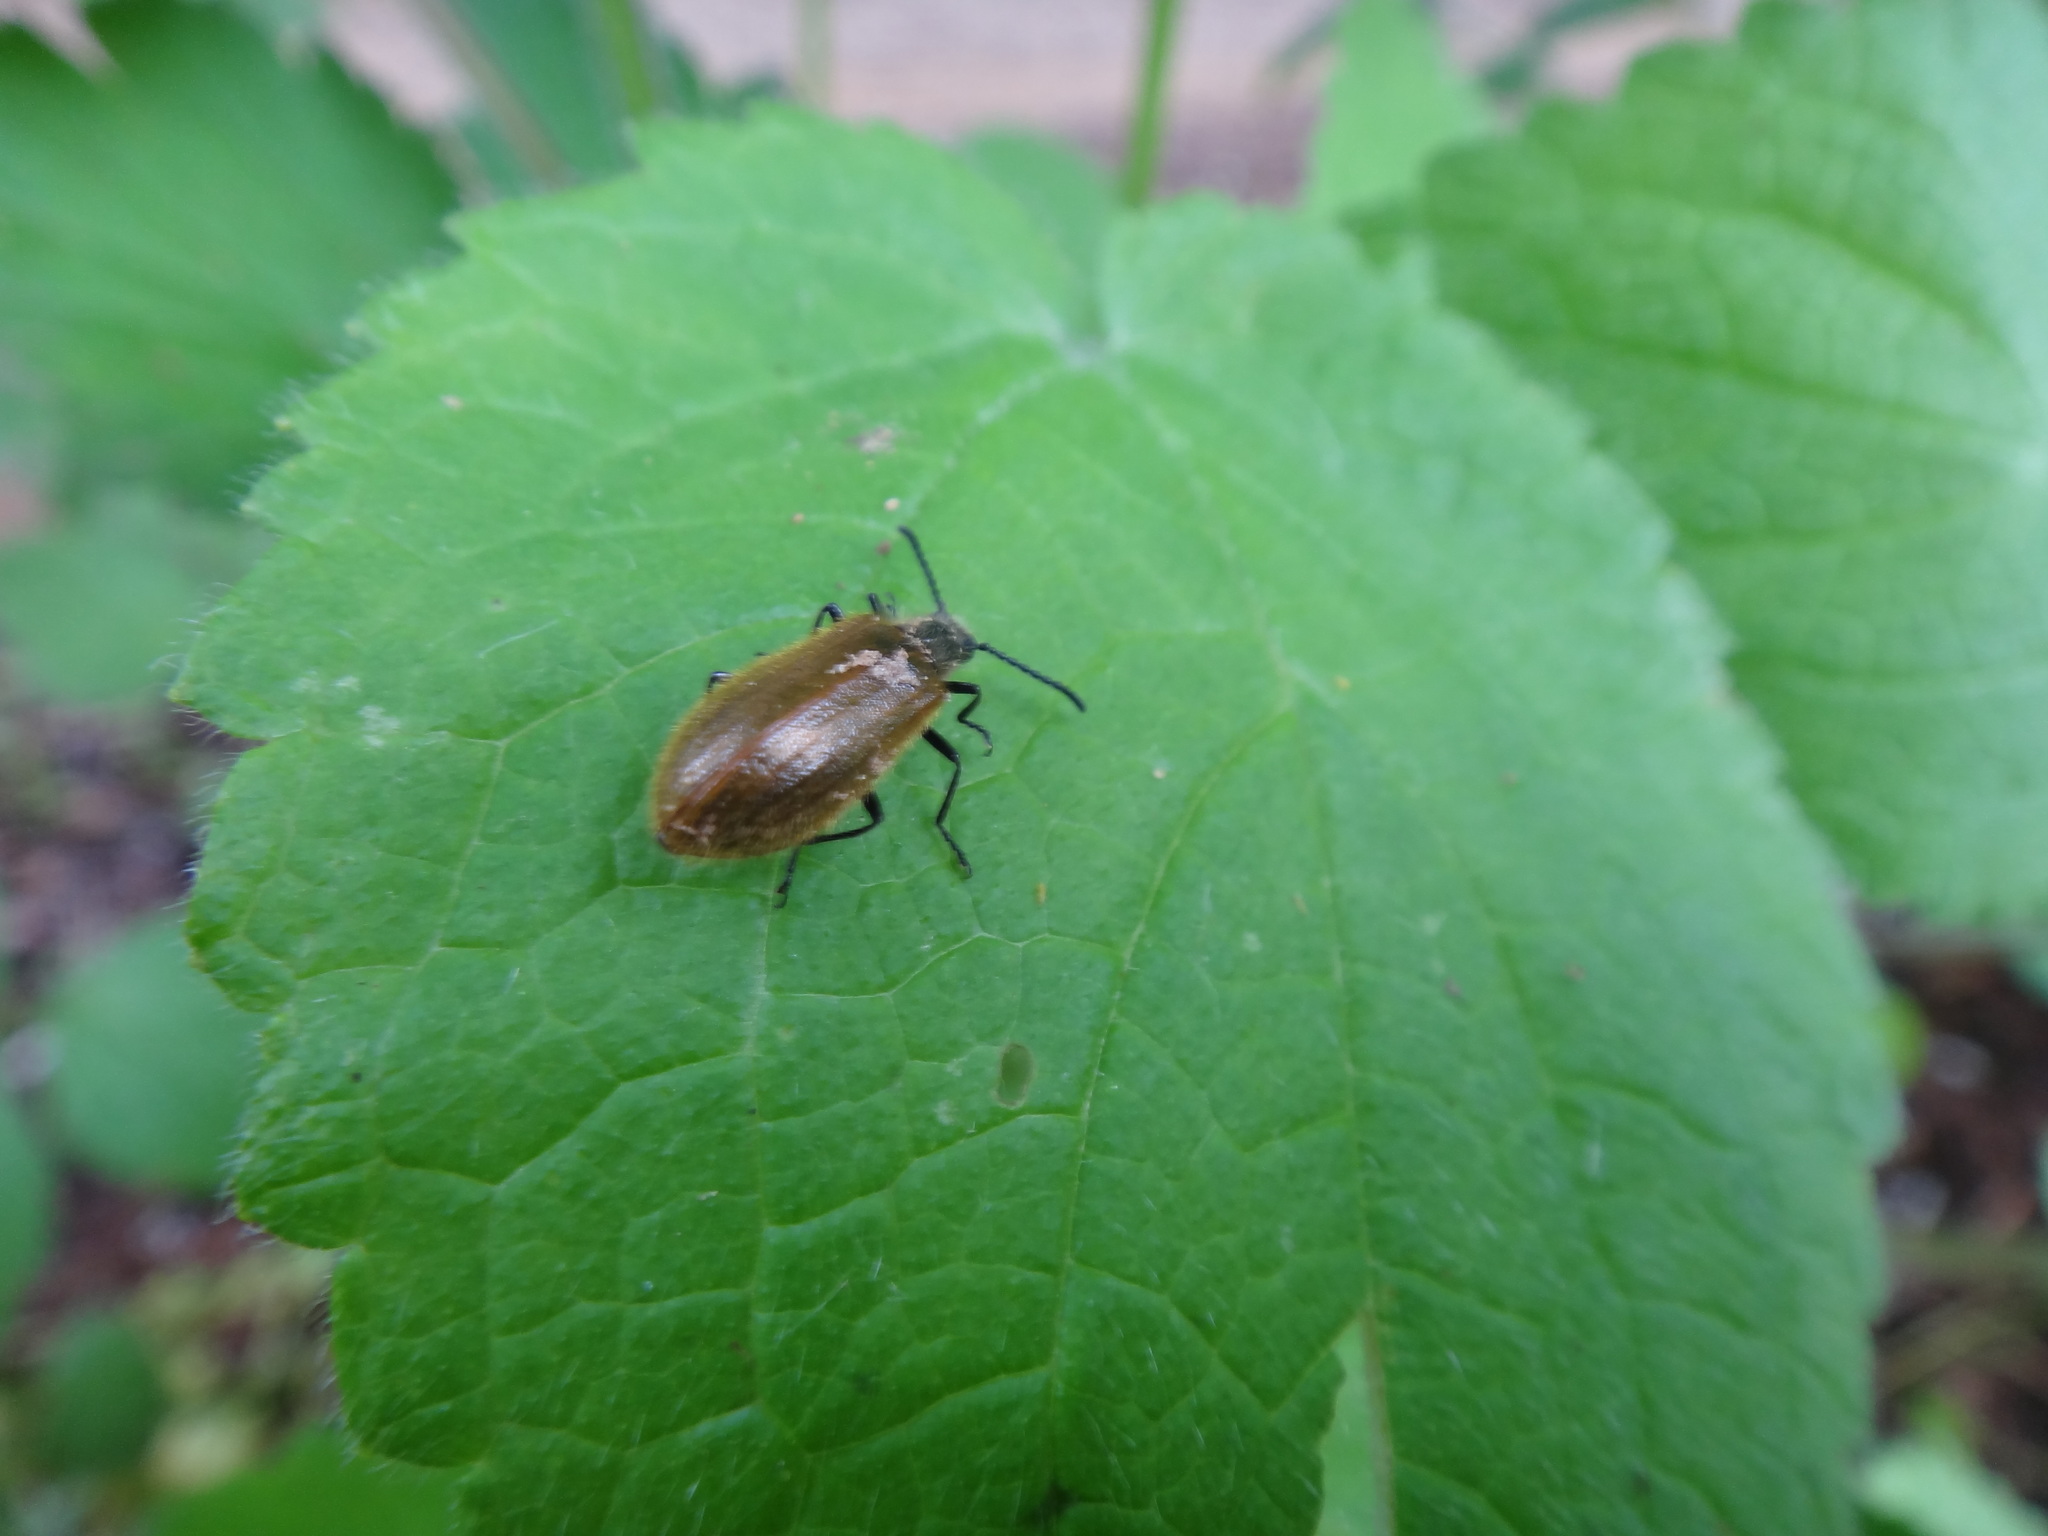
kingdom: Animalia
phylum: Arthropoda
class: Insecta
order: Coleoptera
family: Tenebrionidae
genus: Lagria
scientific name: Lagria hirta
